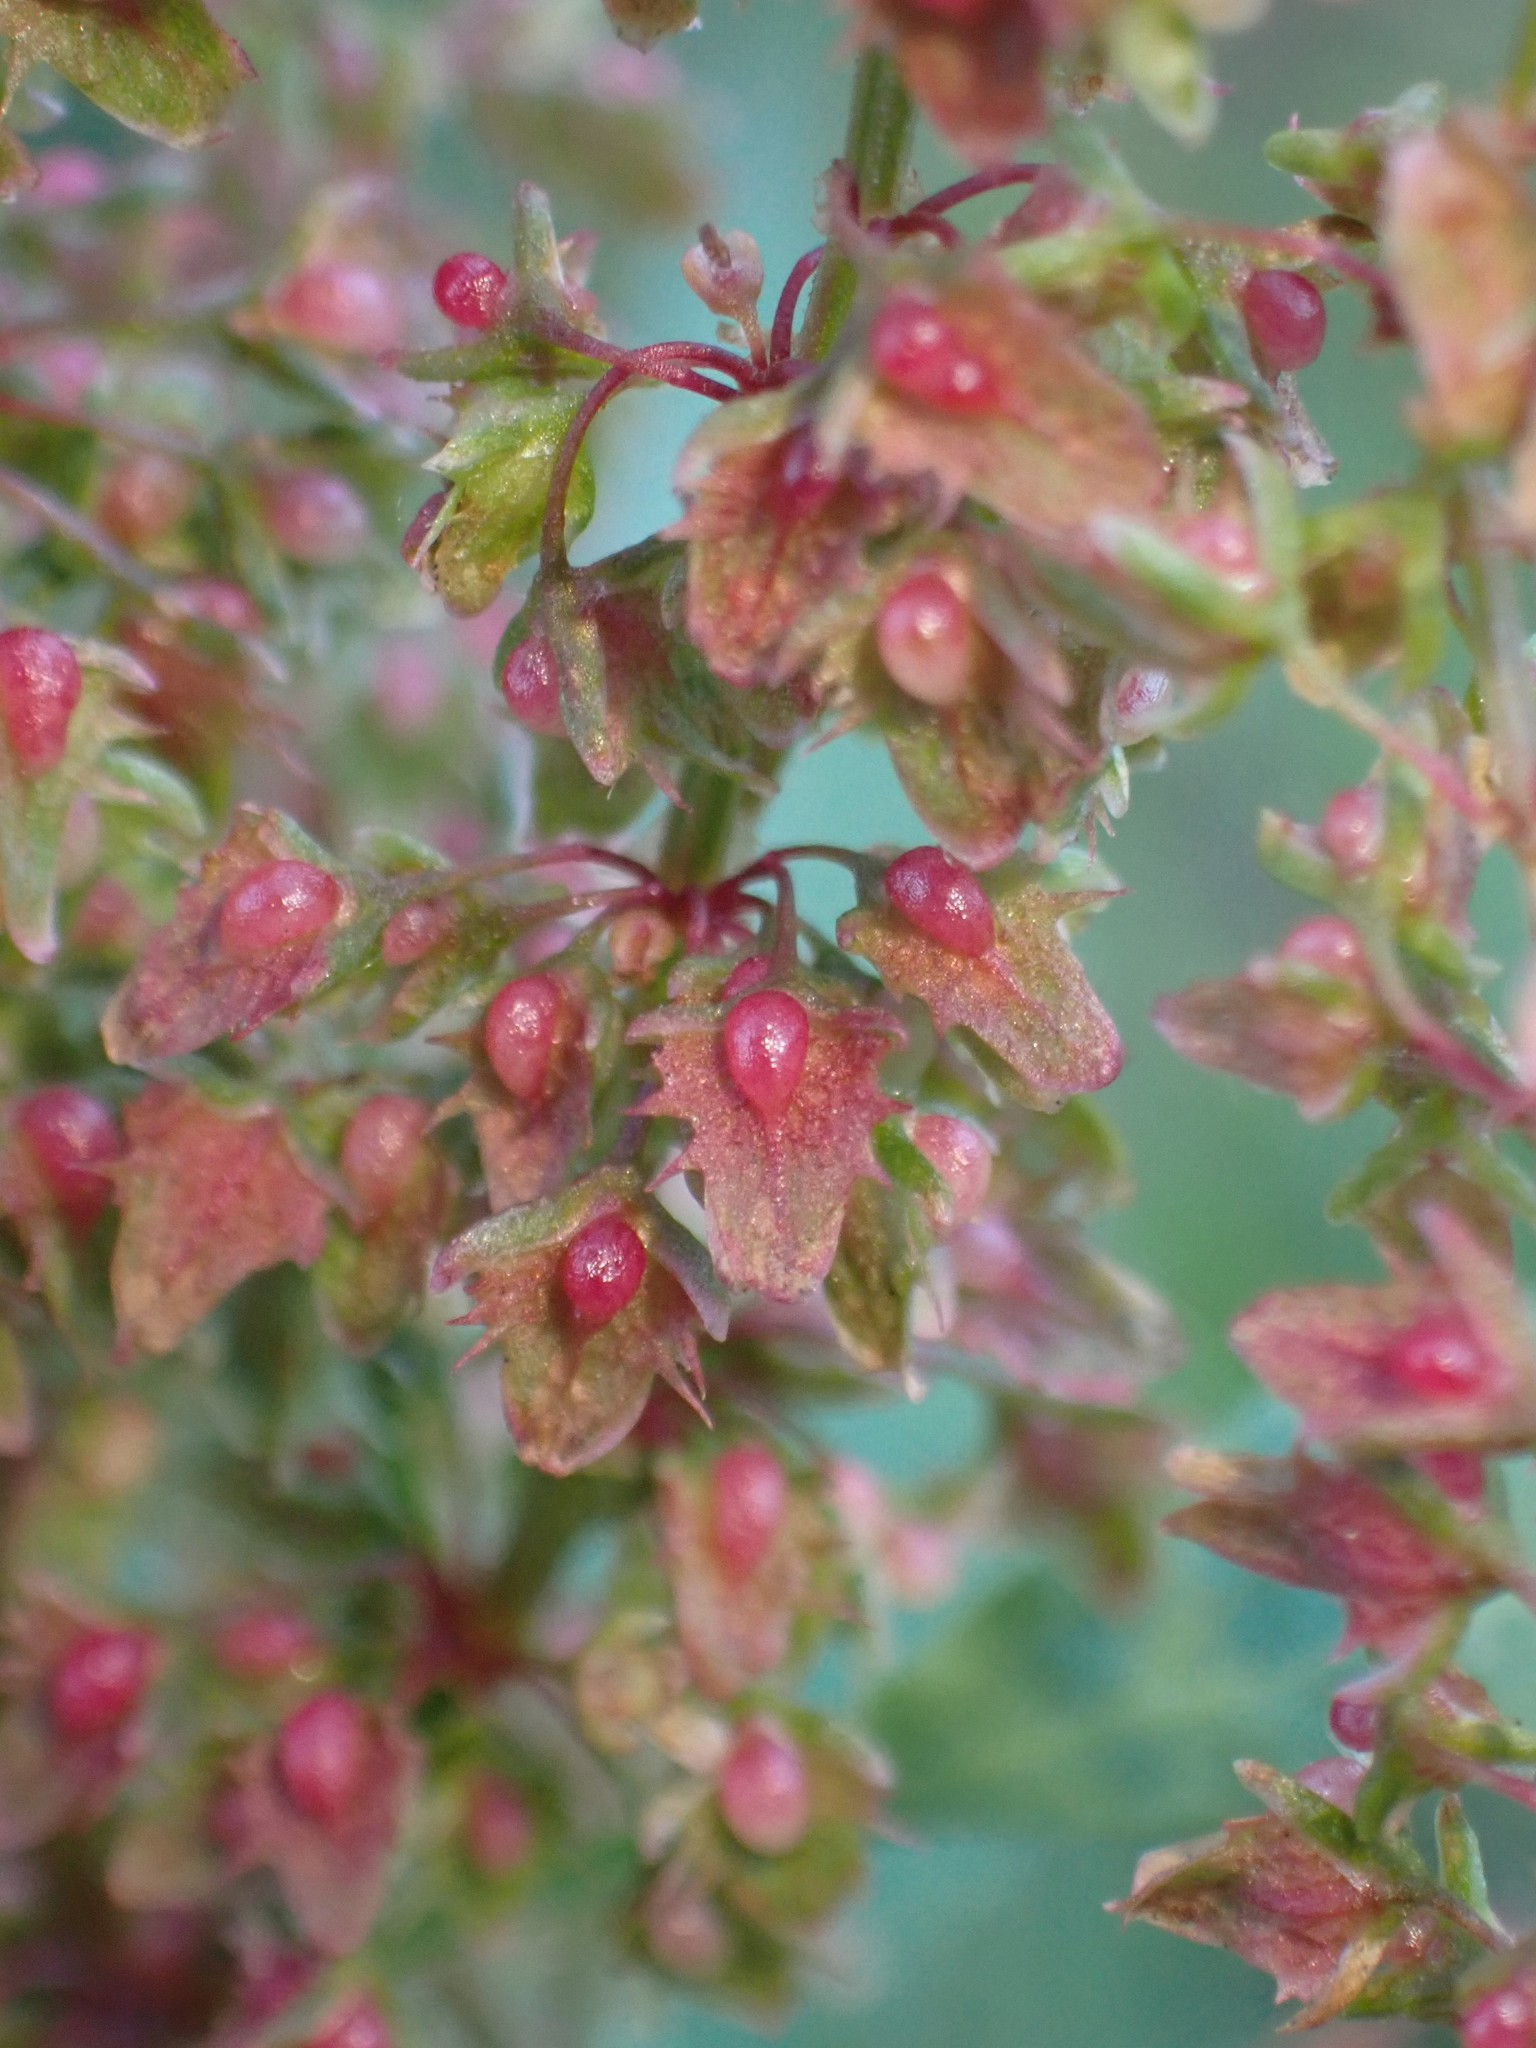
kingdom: Plantae
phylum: Tracheophyta
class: Magnoliopsida
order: Caryophyllales
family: Polygonaceae
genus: Rumex
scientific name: Rumex obtusifolius
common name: Bitter dock
